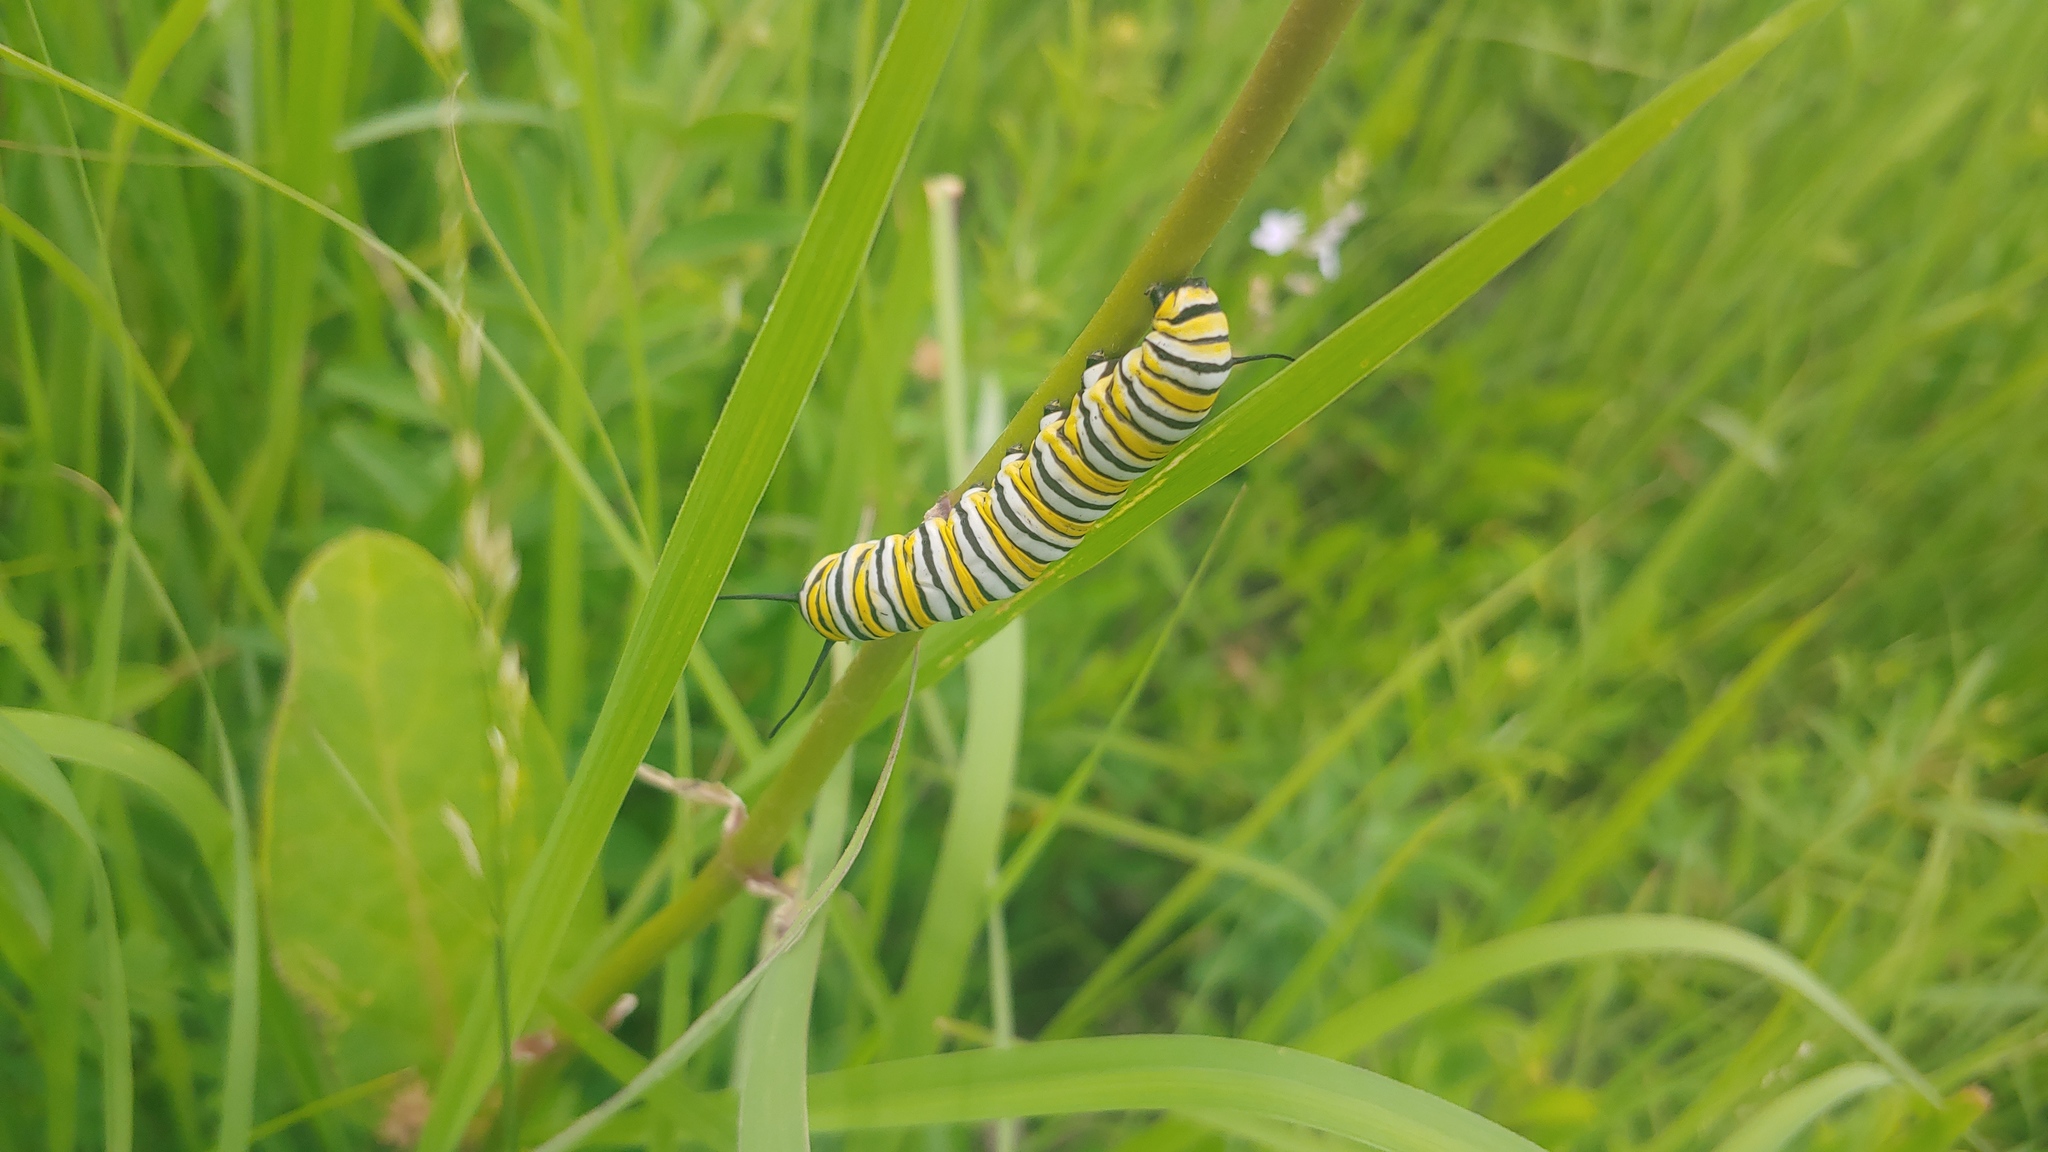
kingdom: Animalia
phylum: Arthropoda
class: Insecta
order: Lepidoptera
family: Nymphalidae
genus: Danaus
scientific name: Danaus plexippus
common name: Monarch
